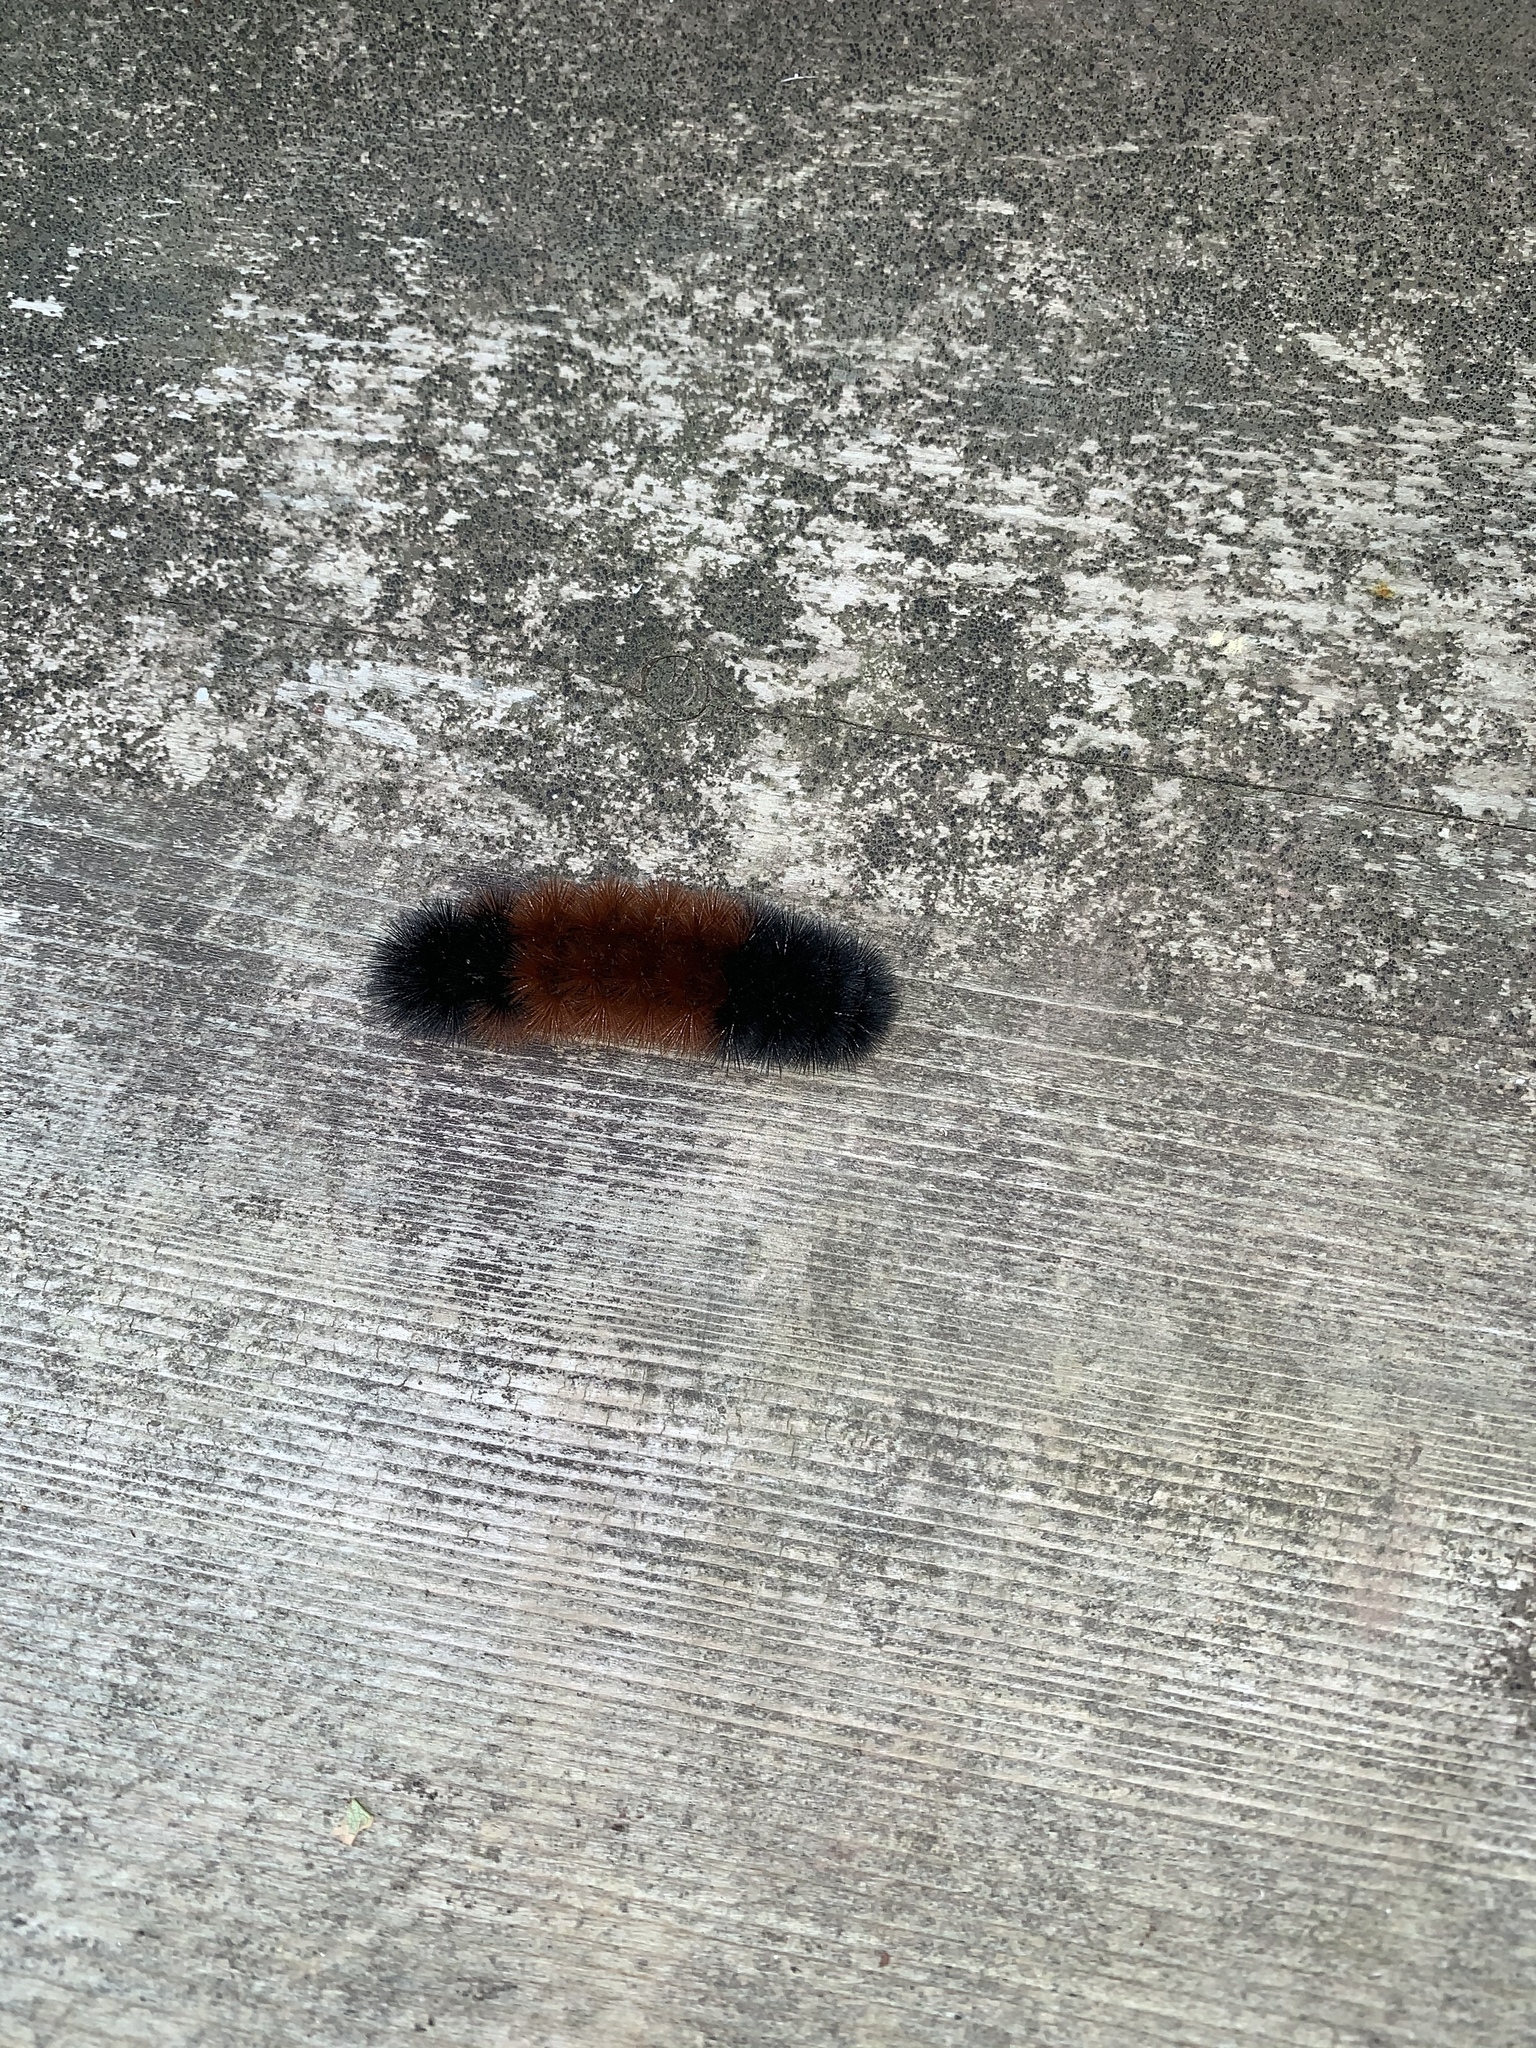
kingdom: Animalia
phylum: Arthropoda
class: Insecta
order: Lepidoptera
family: Erebidae
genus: Pyrrharctia
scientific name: Pyrrharctia isabella
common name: Isabella tiger moth
